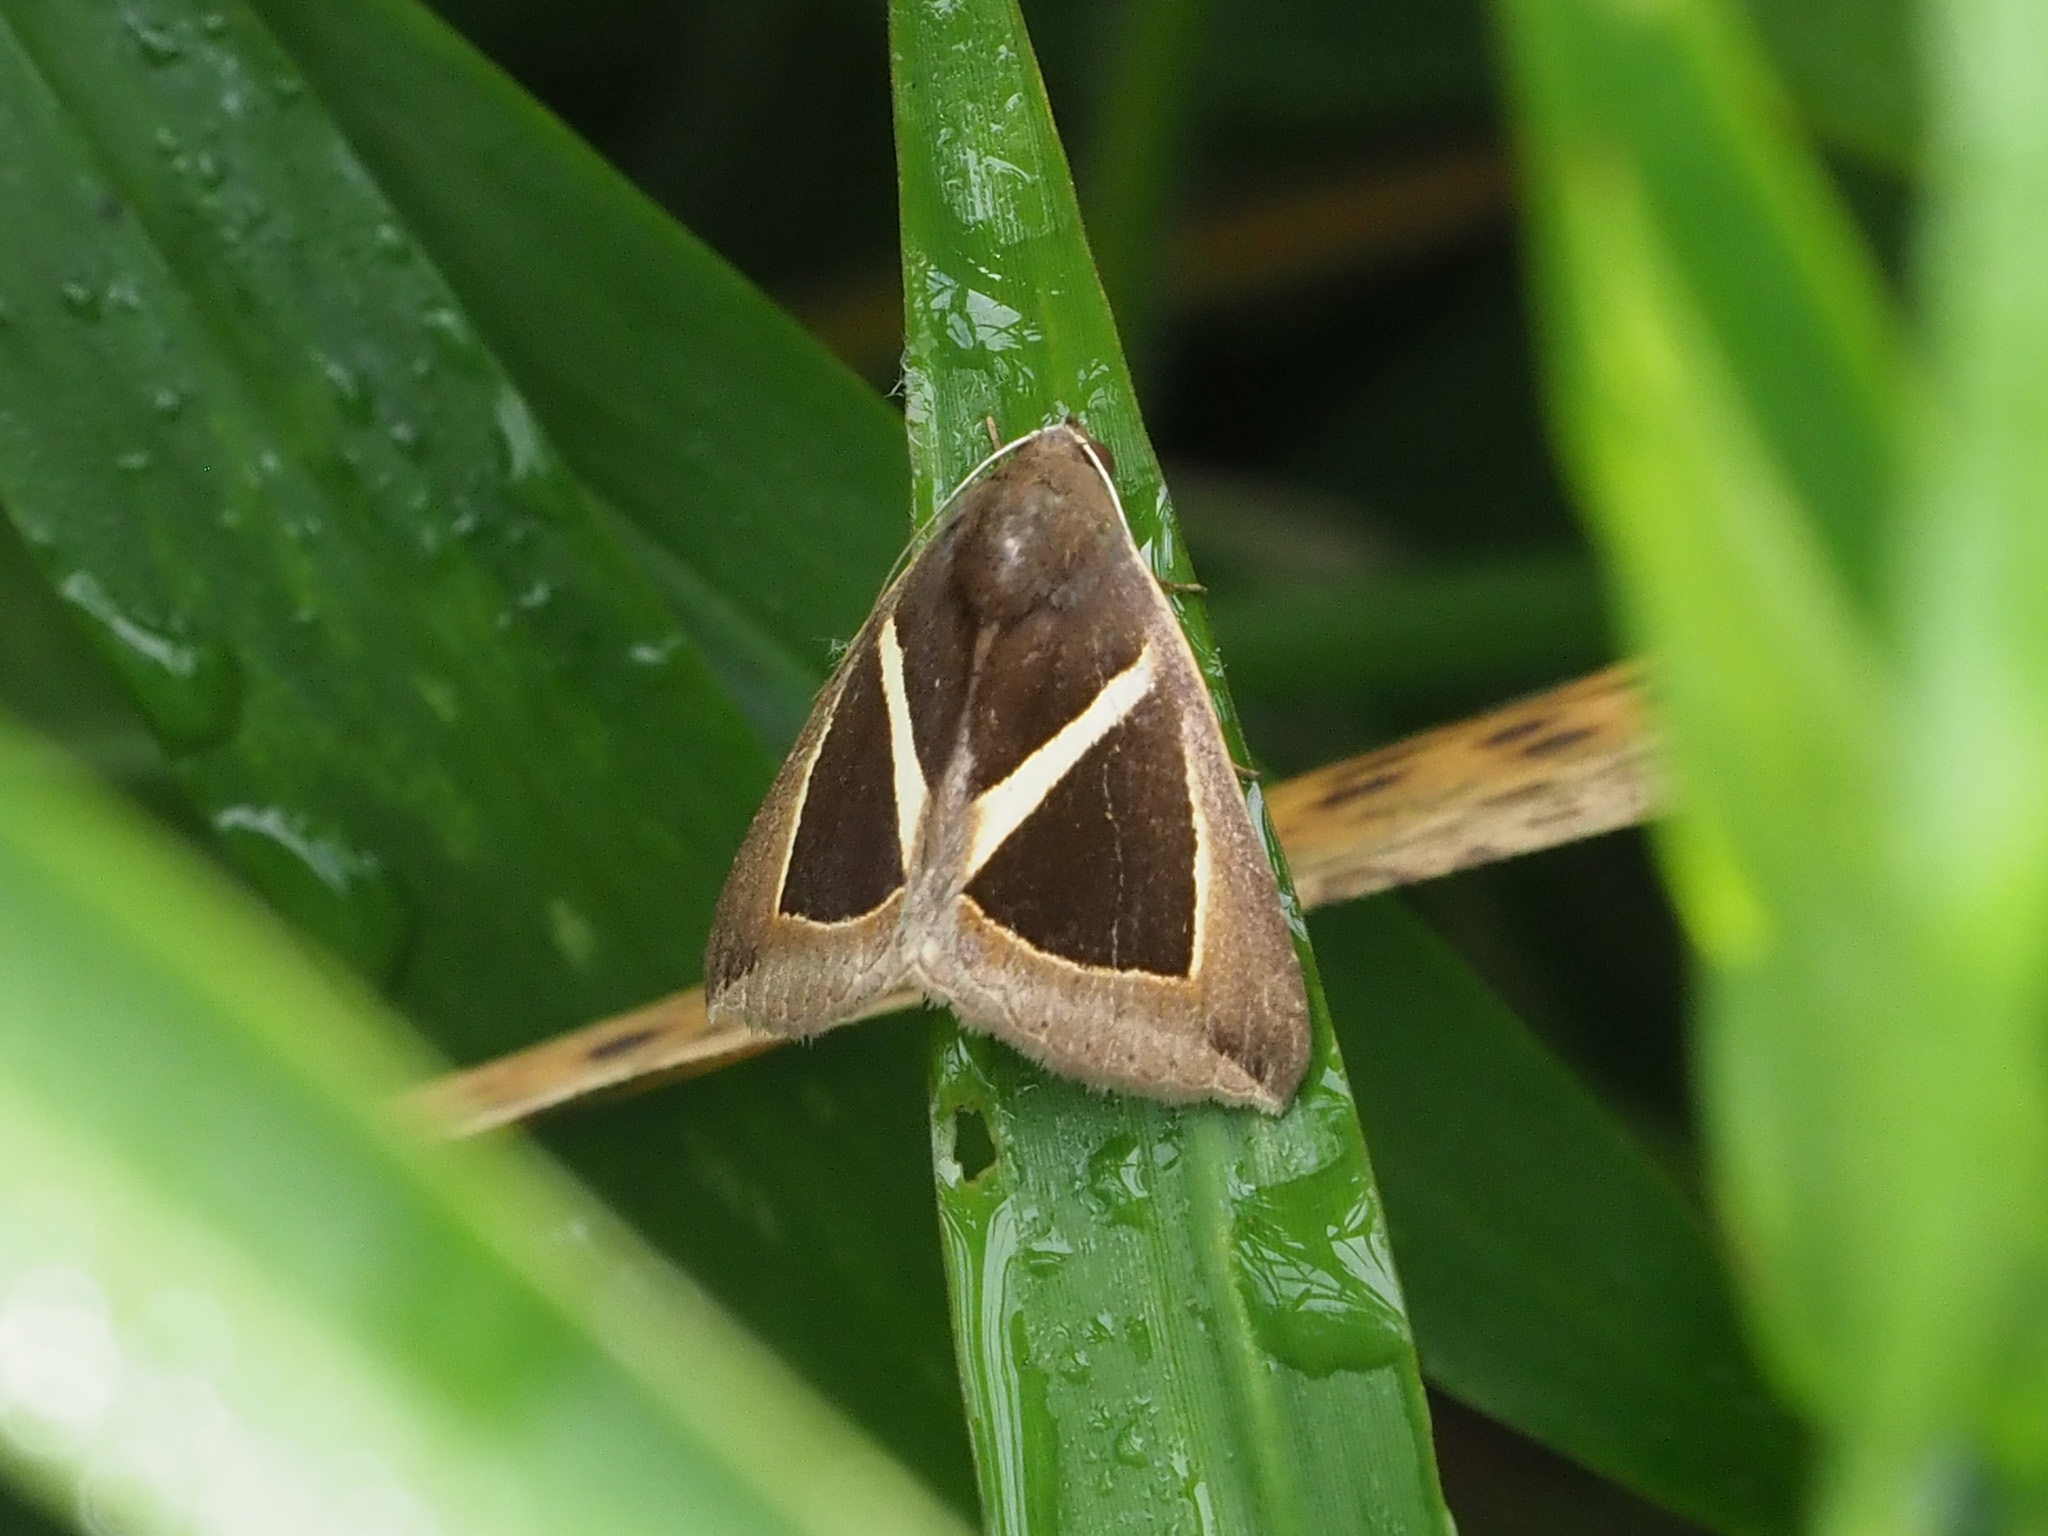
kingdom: Animalia
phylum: Arthropoda
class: Insecta
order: Lepidoptera
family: Erebidae
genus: Chalciope
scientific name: Chalciope mygdon
